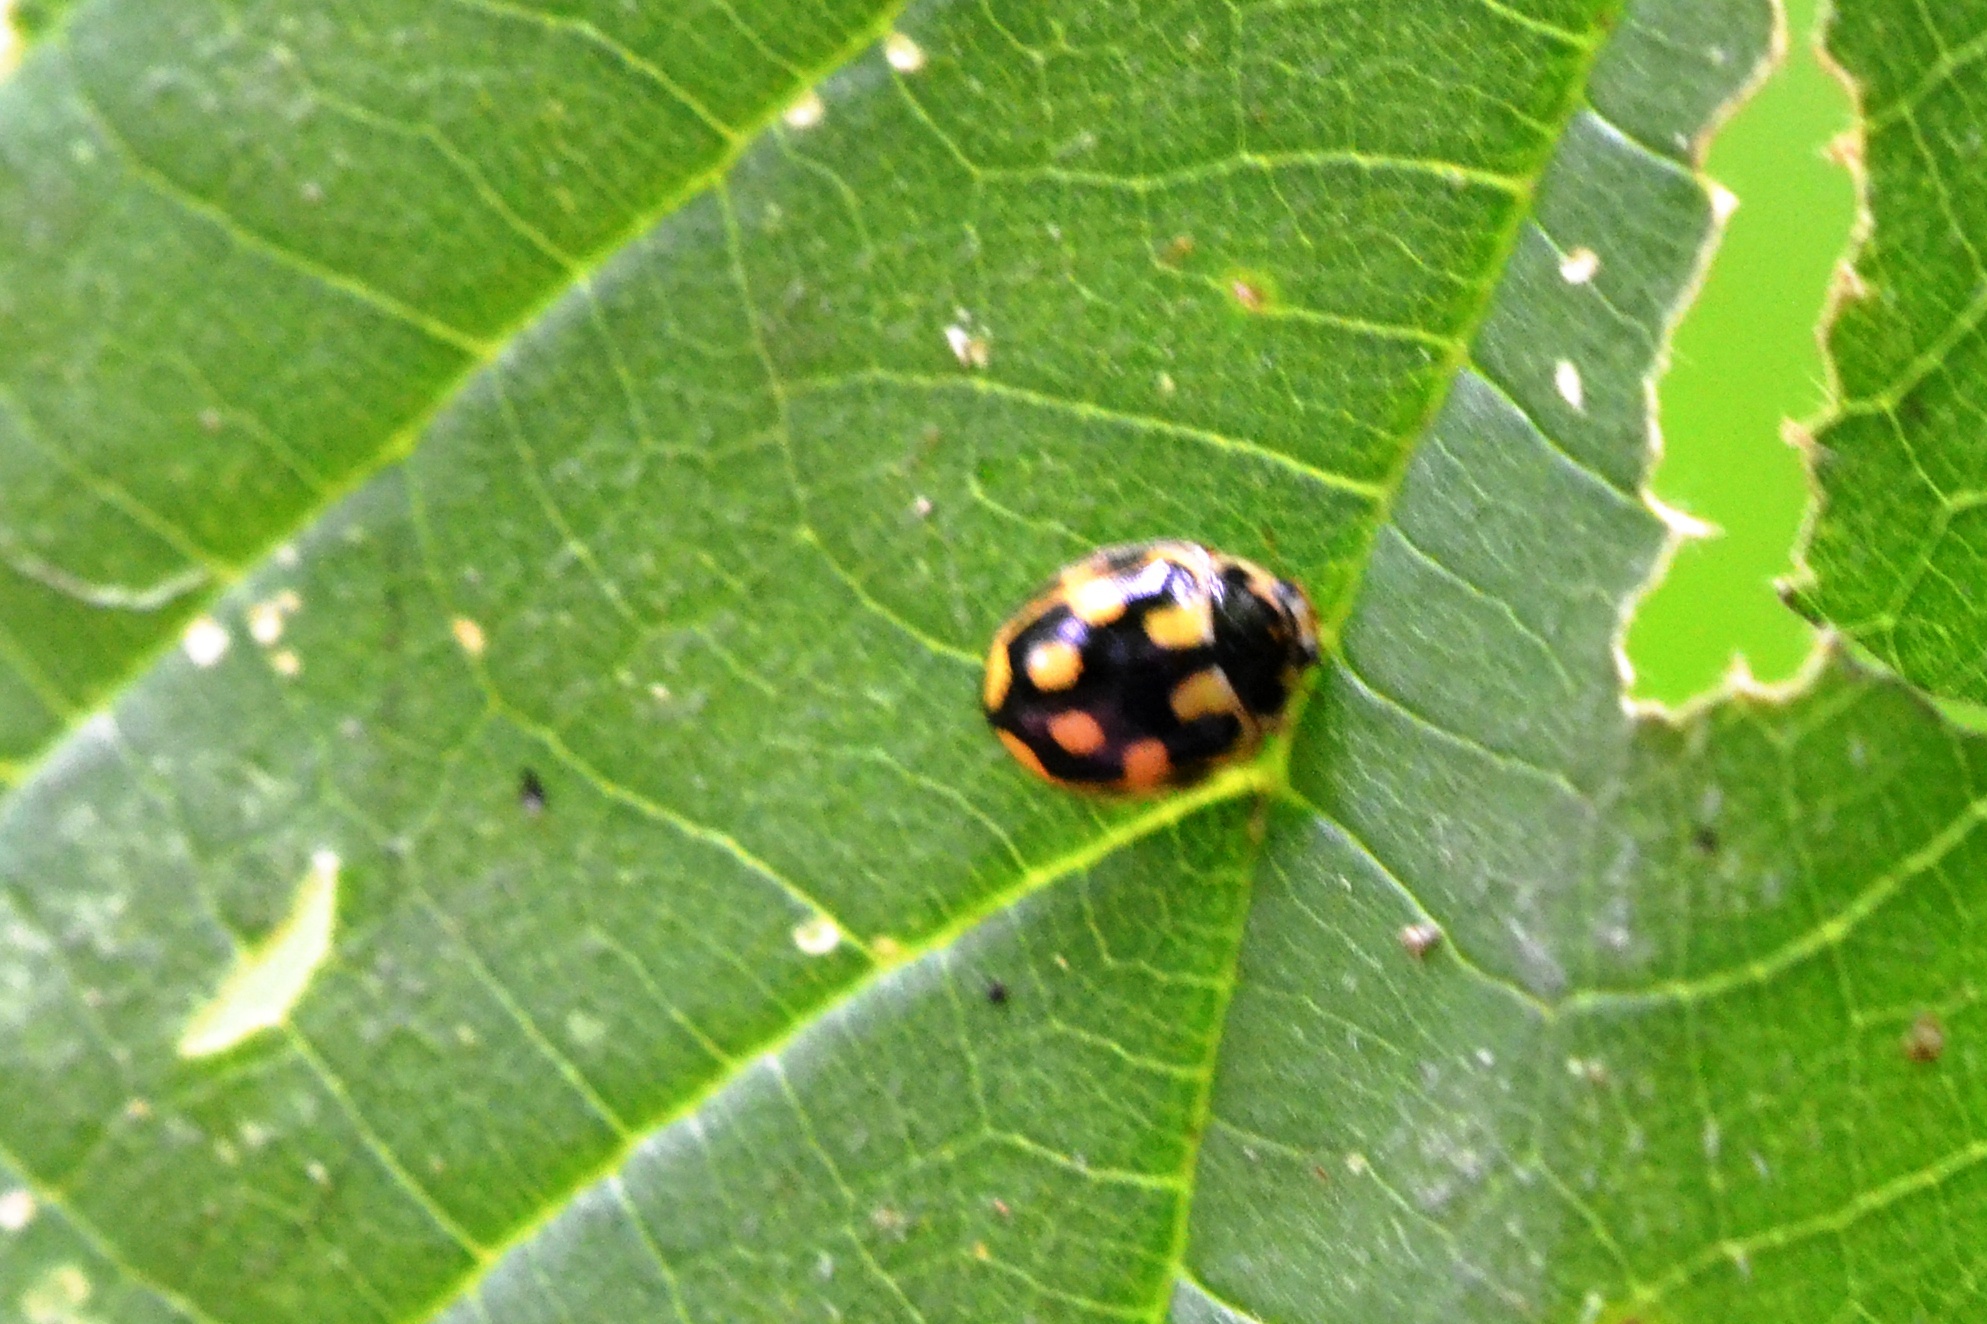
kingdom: Animalia
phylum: Arthropoda
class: Insecta
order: Coleoptera
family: Coccinellidae
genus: Propylaea
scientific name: Propylaea quatuordecimpunctata
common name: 14-spotted ladybird beetle
